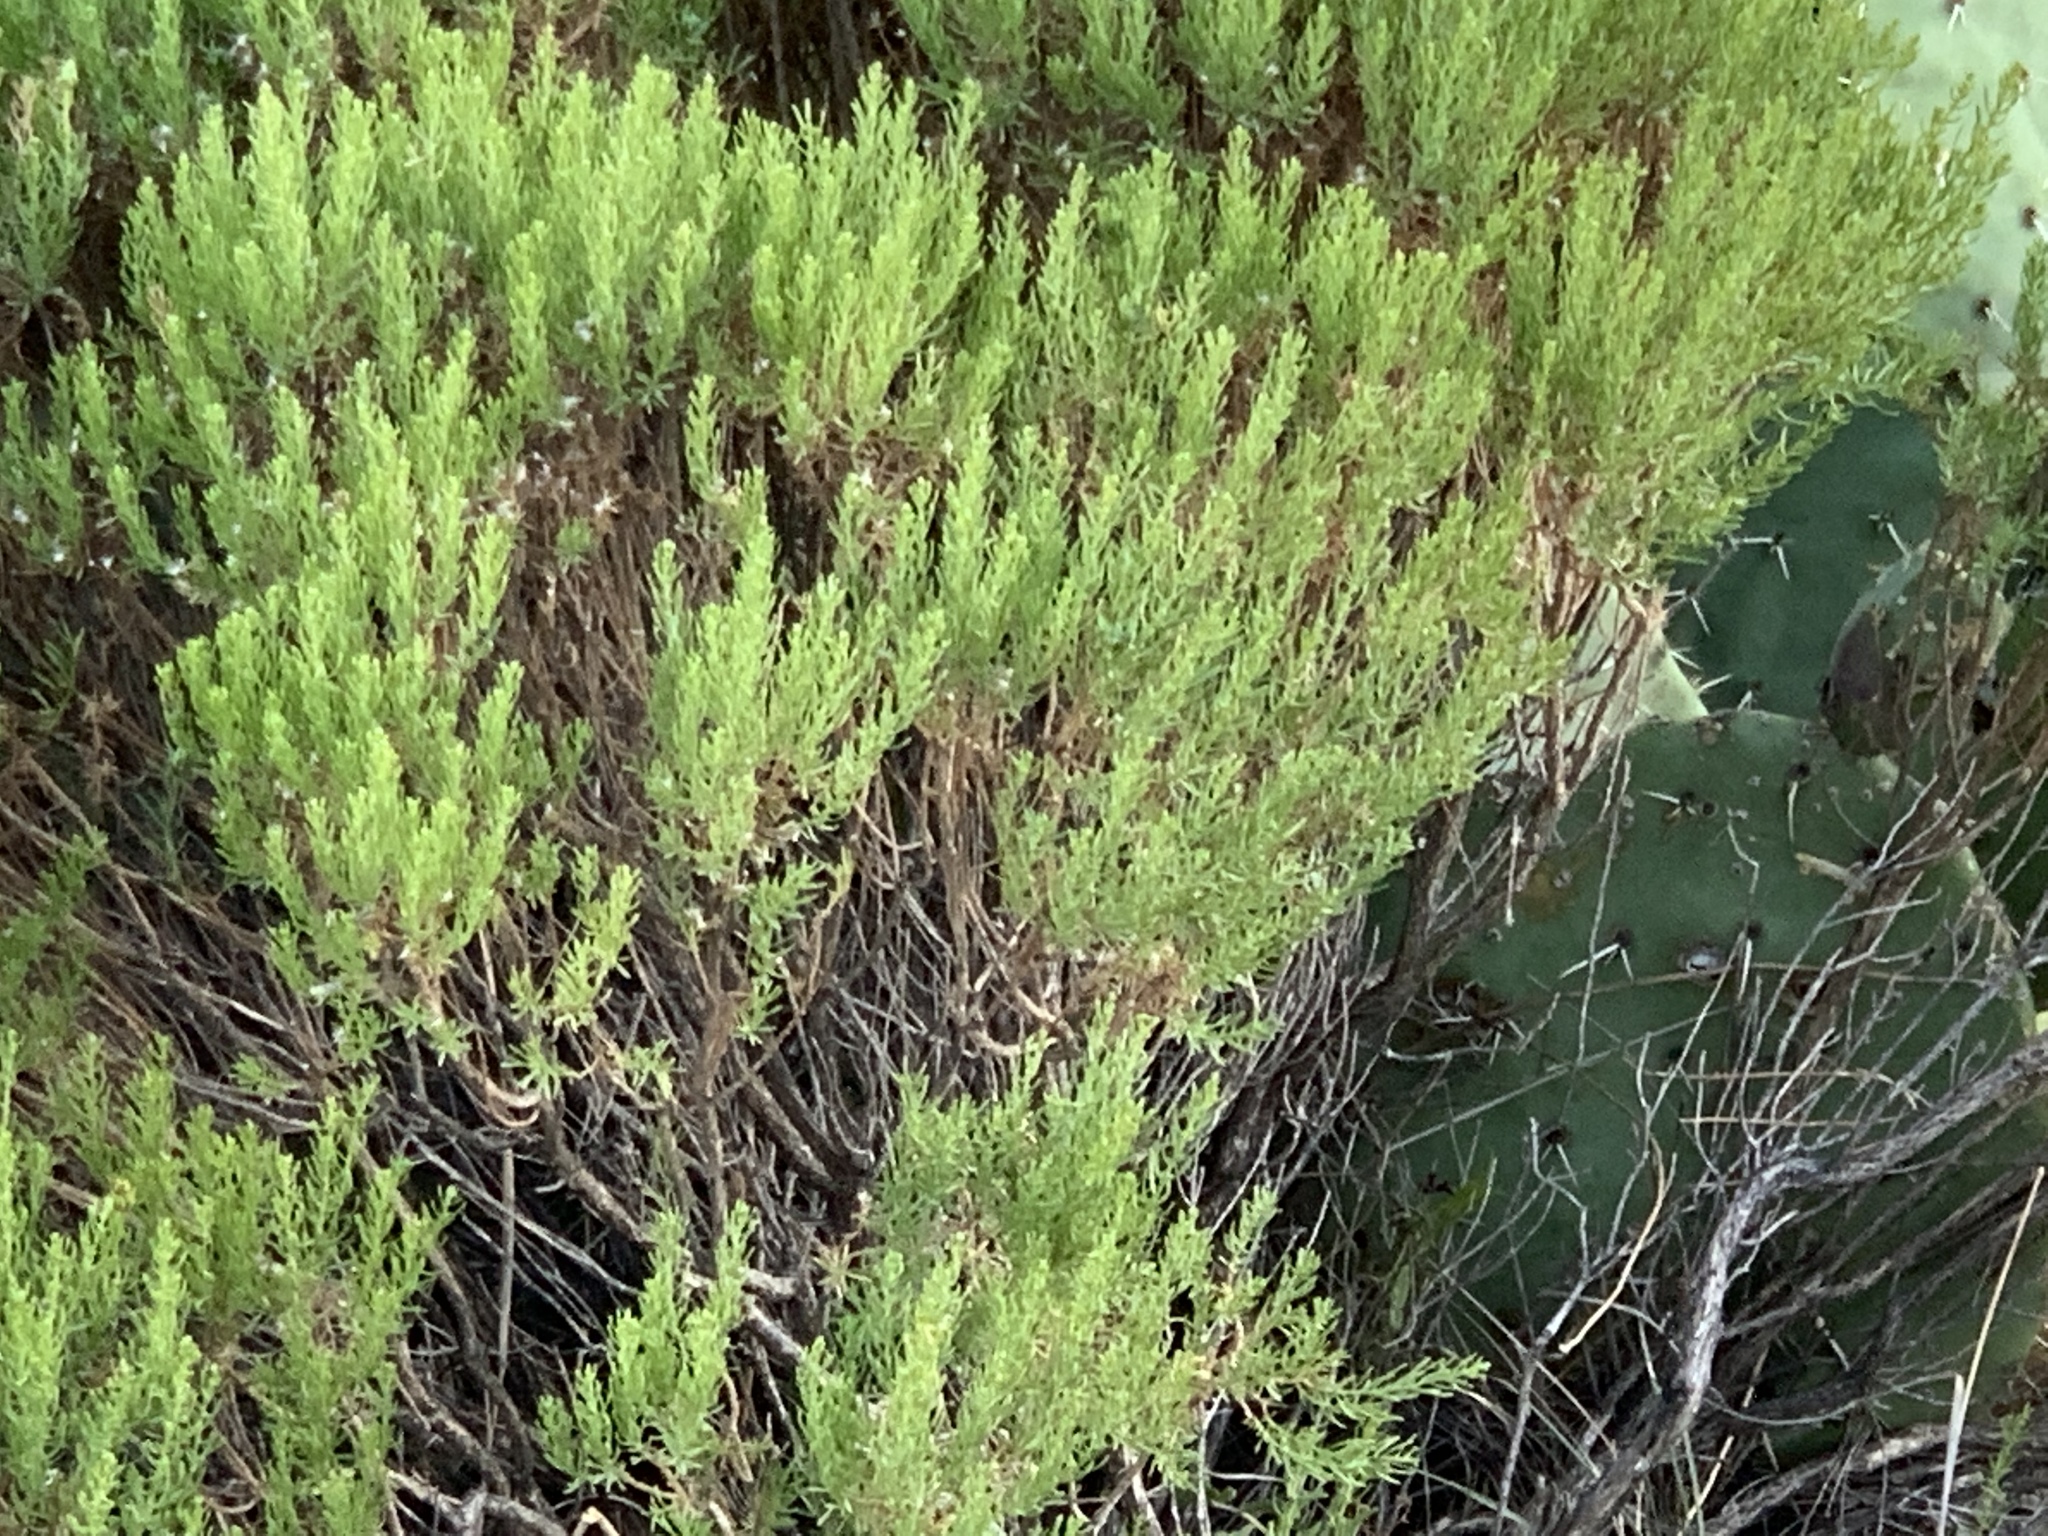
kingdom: Plantae
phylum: Tracheophyta
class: Magnoliopsida
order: Asterales
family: Asteraceae
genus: Ericameria
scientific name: Ericameria laricifolia
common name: Turpentine-bush
